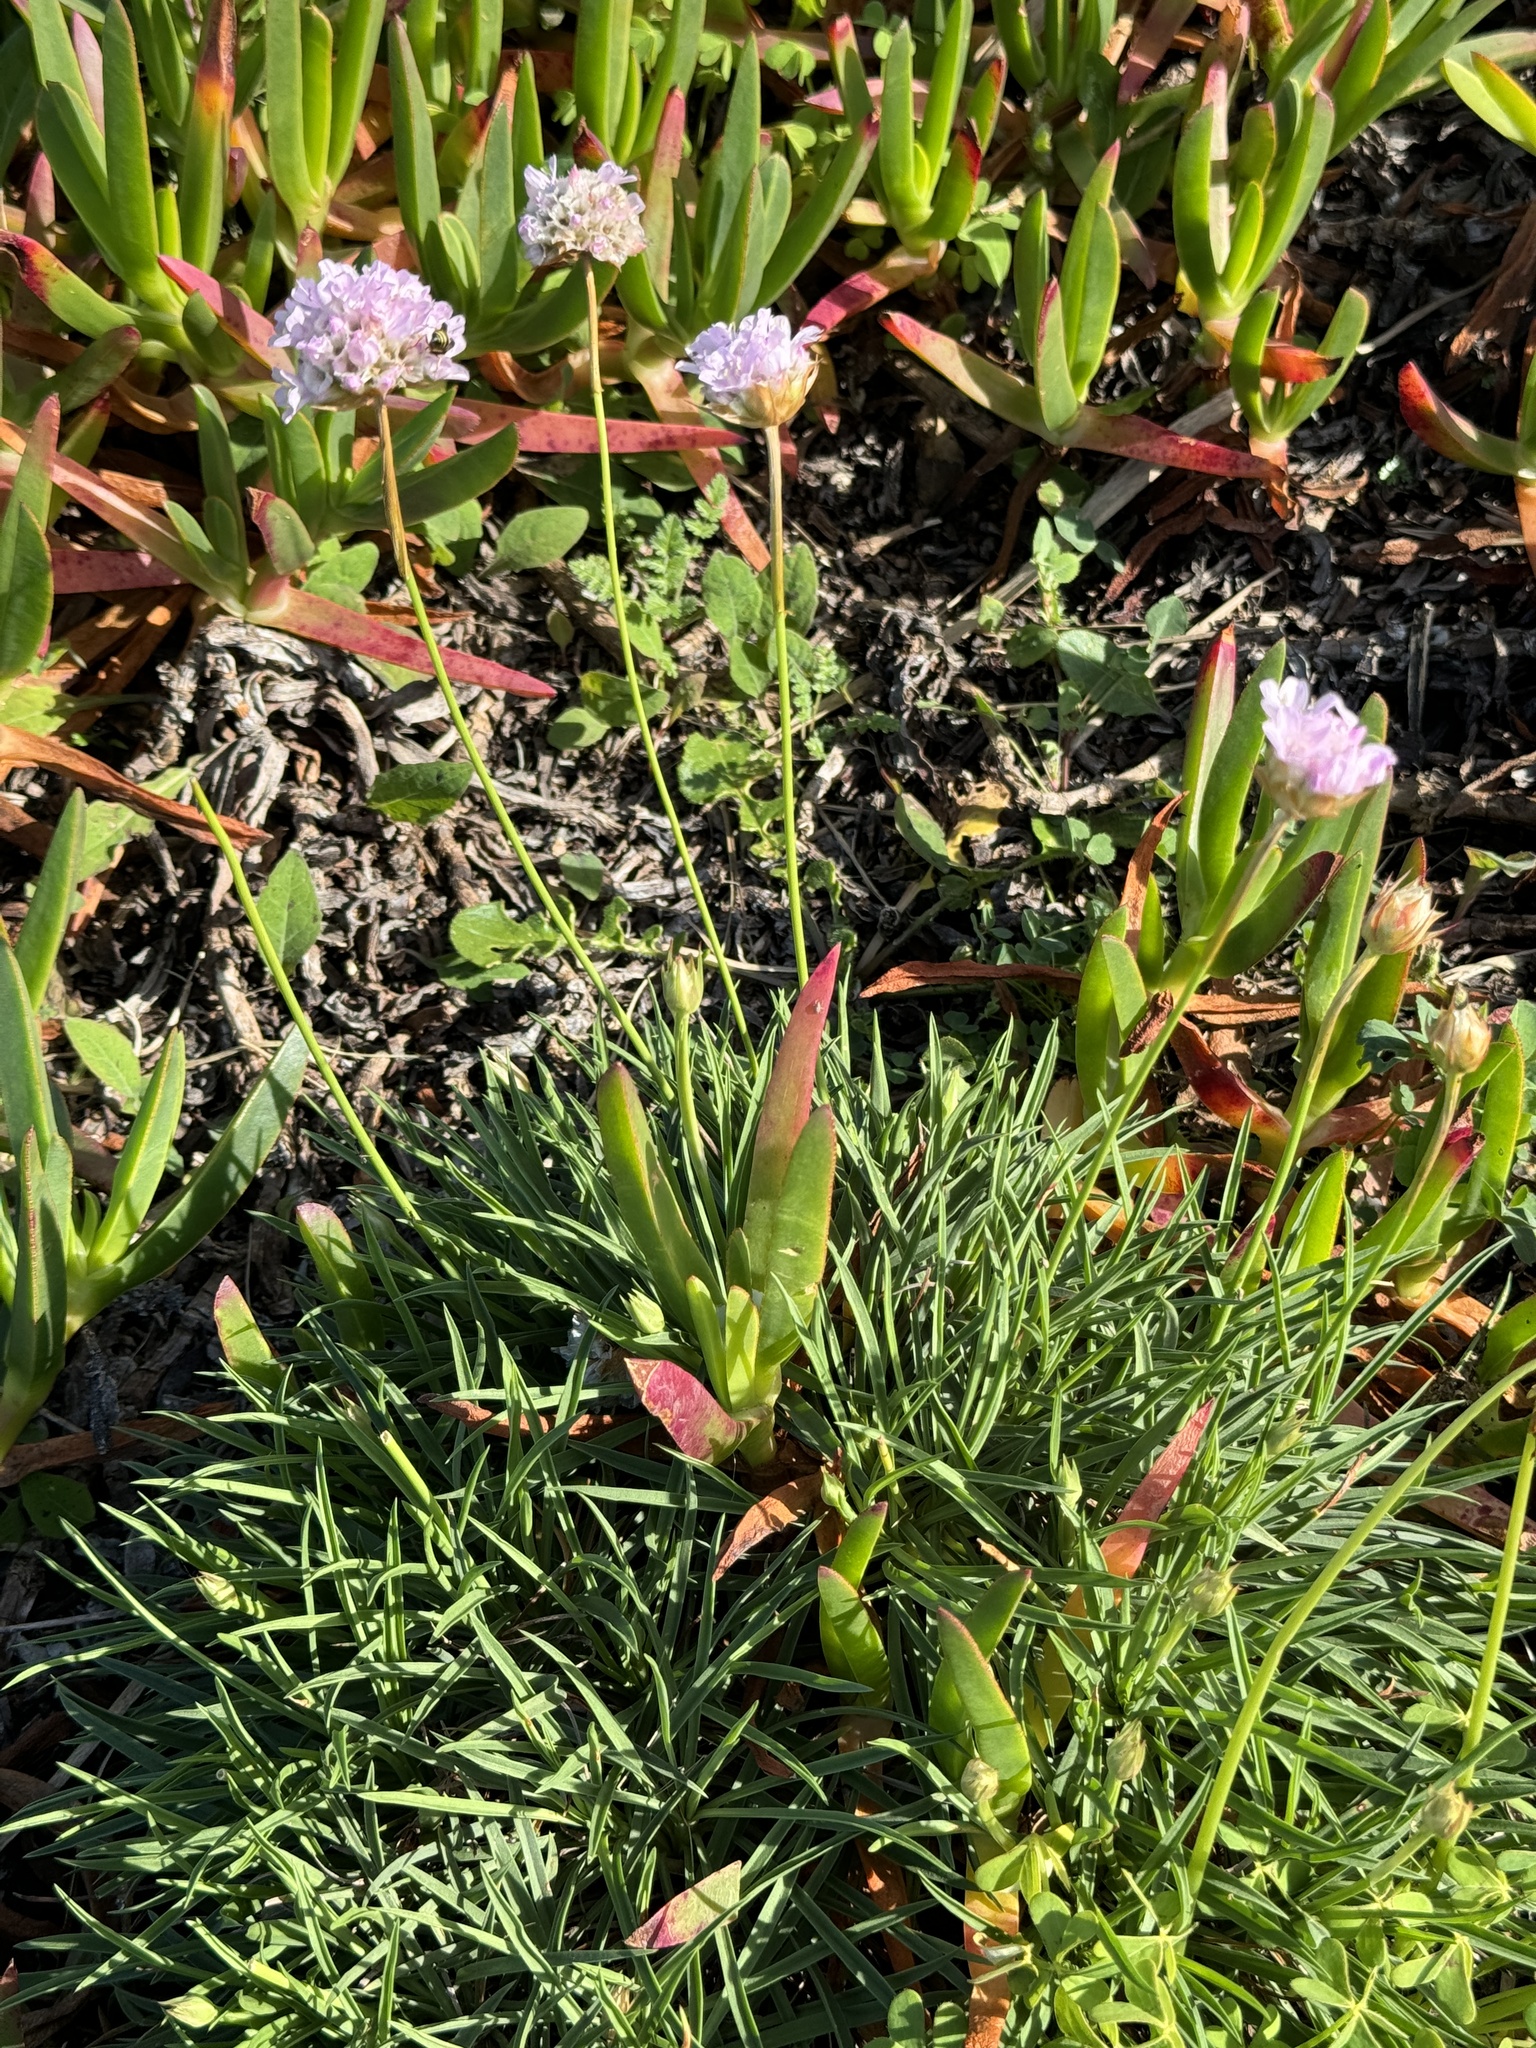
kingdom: Plantae
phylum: Tracheophyta
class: Magnoliopsida
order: Caryophyllales
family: Plumbaginaceae
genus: Armeria
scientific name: Armeria welwitschii
